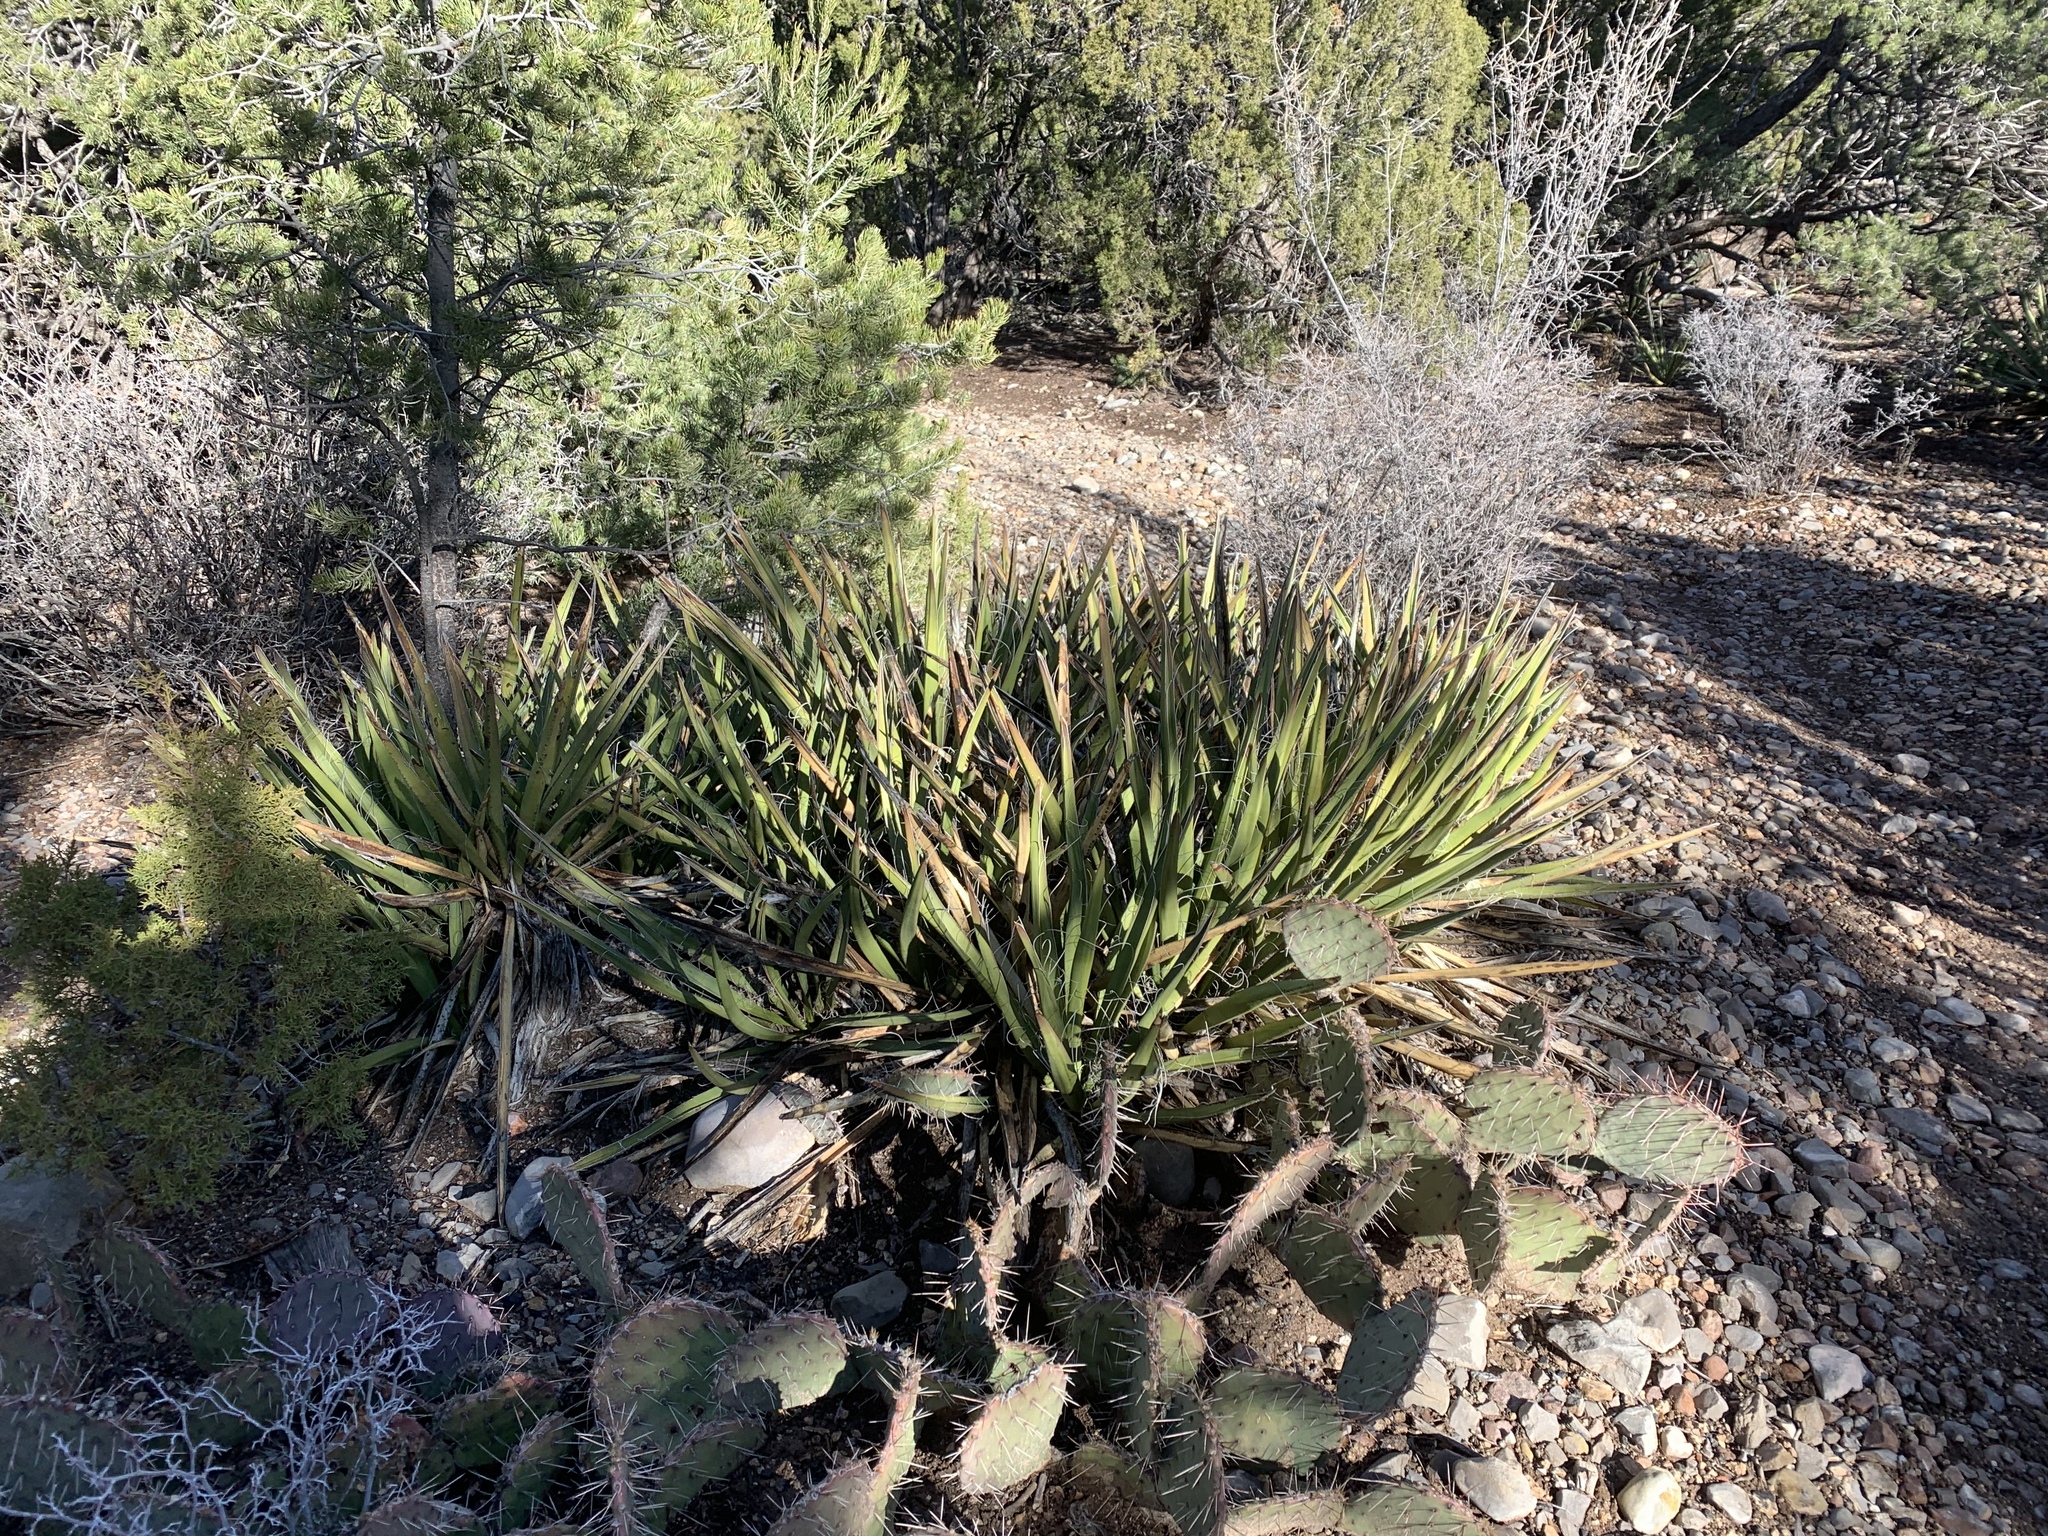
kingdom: Plantae
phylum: Tracheophyta
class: Liliopsida
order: Asparagales
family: Asparagaceae
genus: Yucca
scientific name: Yucca baccata
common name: Banana yucca
